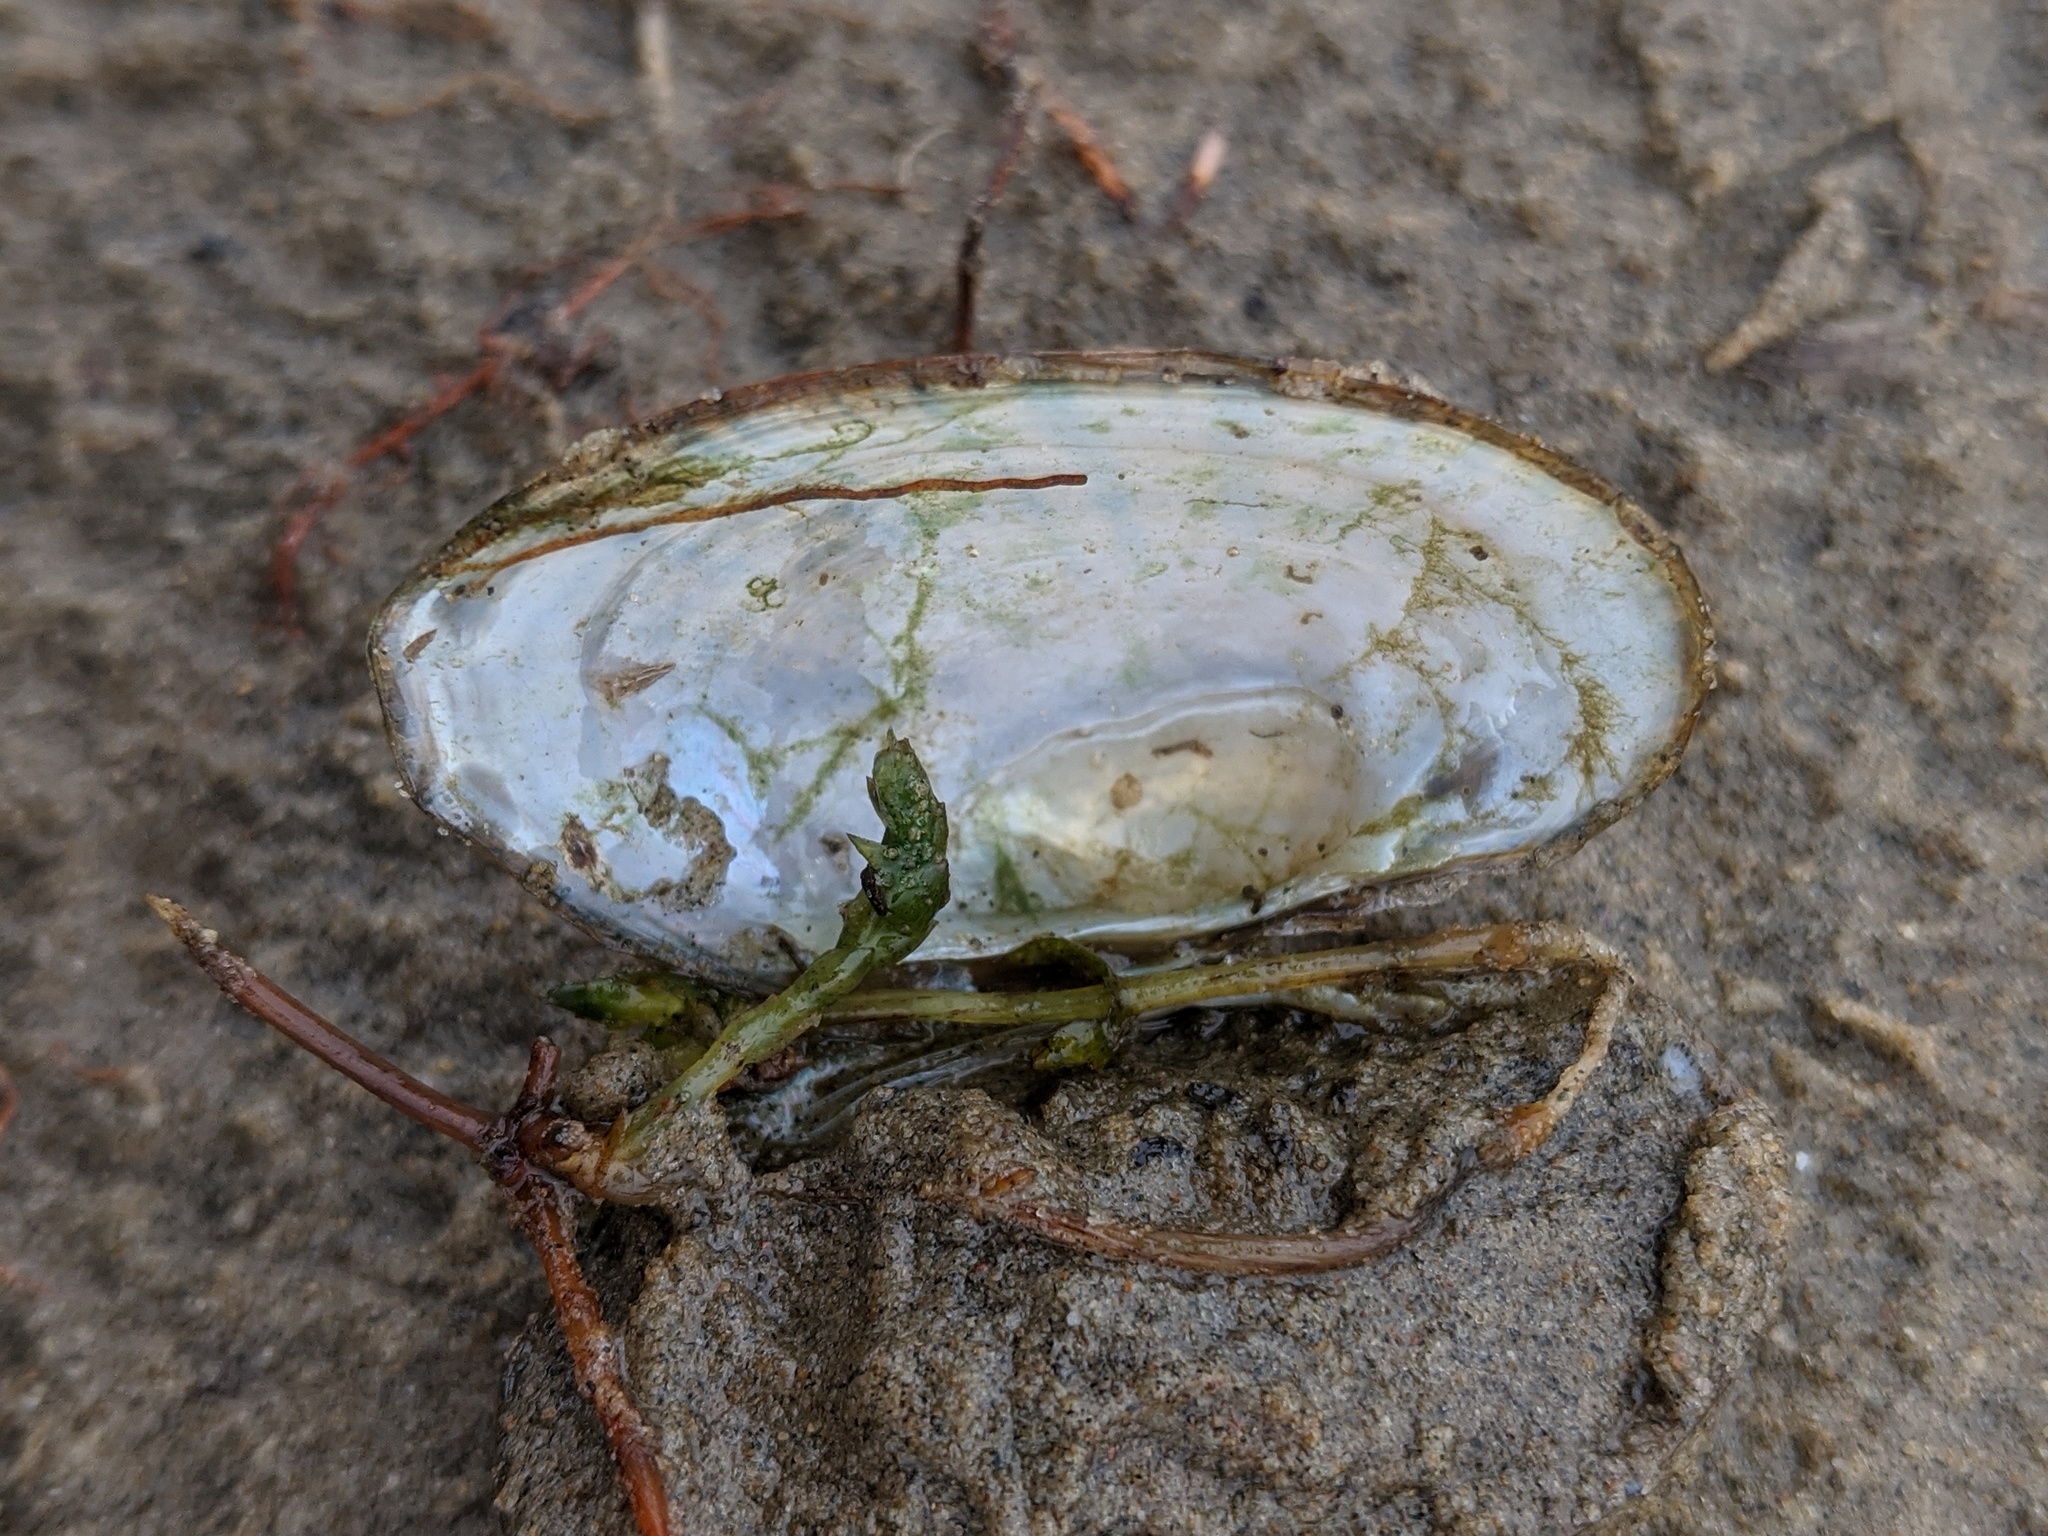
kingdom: Animalia
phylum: Mollusca
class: Bivalvia
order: Unionida
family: Unionidae
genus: Lampsilis
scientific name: Lampsilis siliquoidea
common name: Fatmucket
